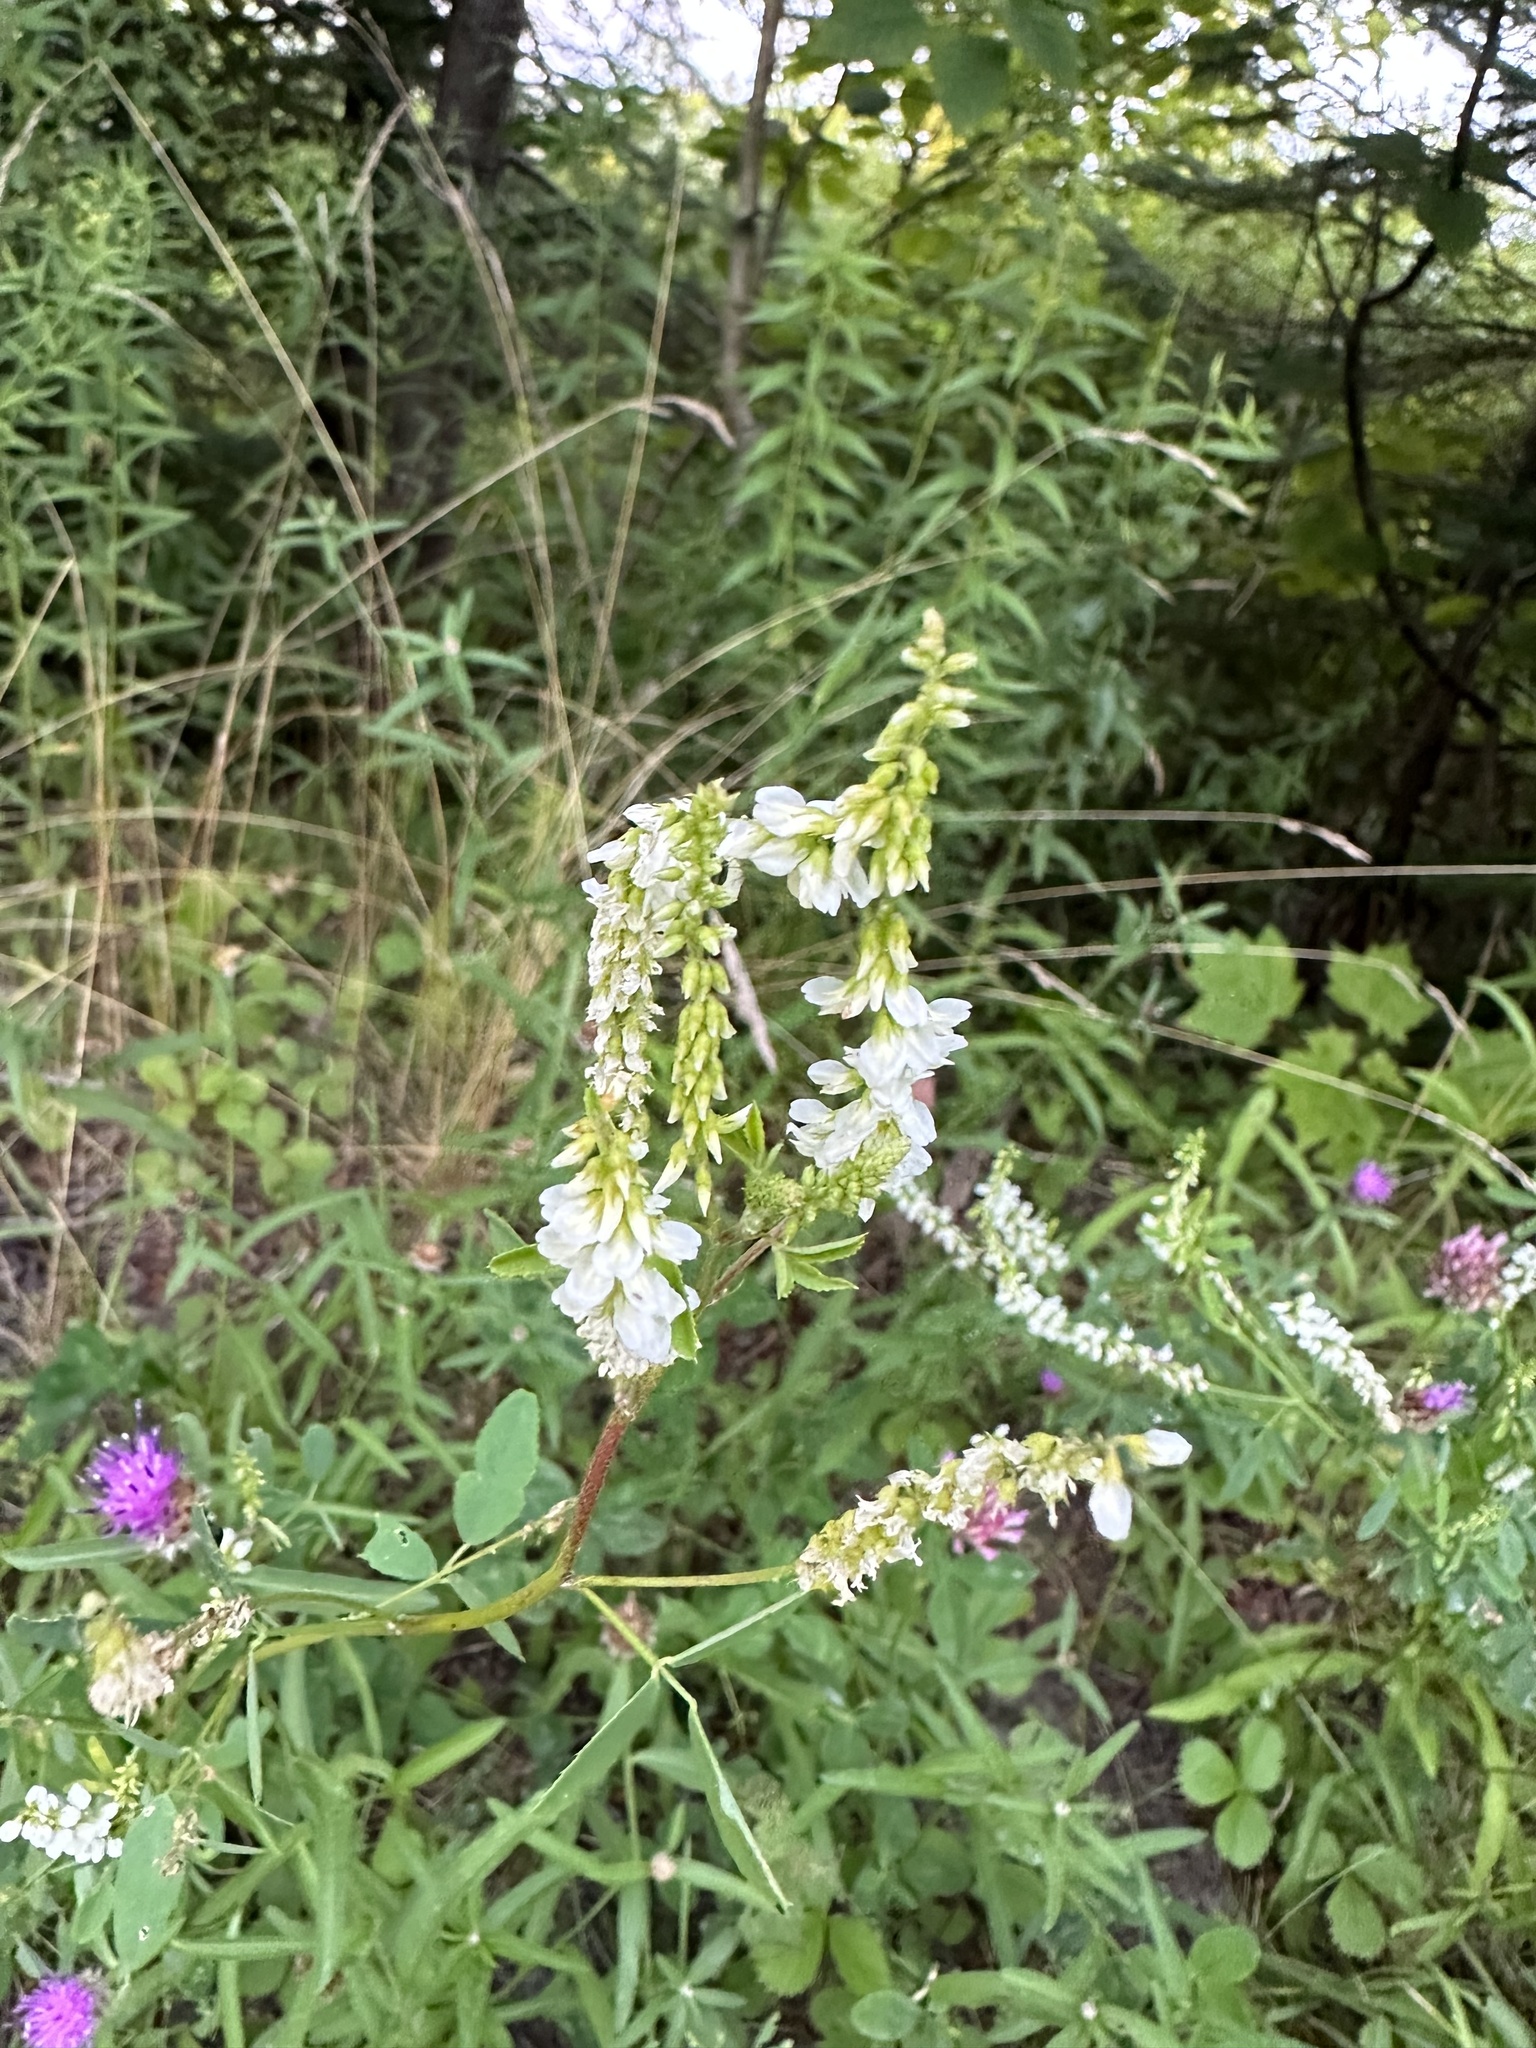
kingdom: Plantae
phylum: Tracheophyta
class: Magnoliopsida
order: Fabales
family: Fabaceae
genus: Melilotus
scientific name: Melilotus albus
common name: White melilot
